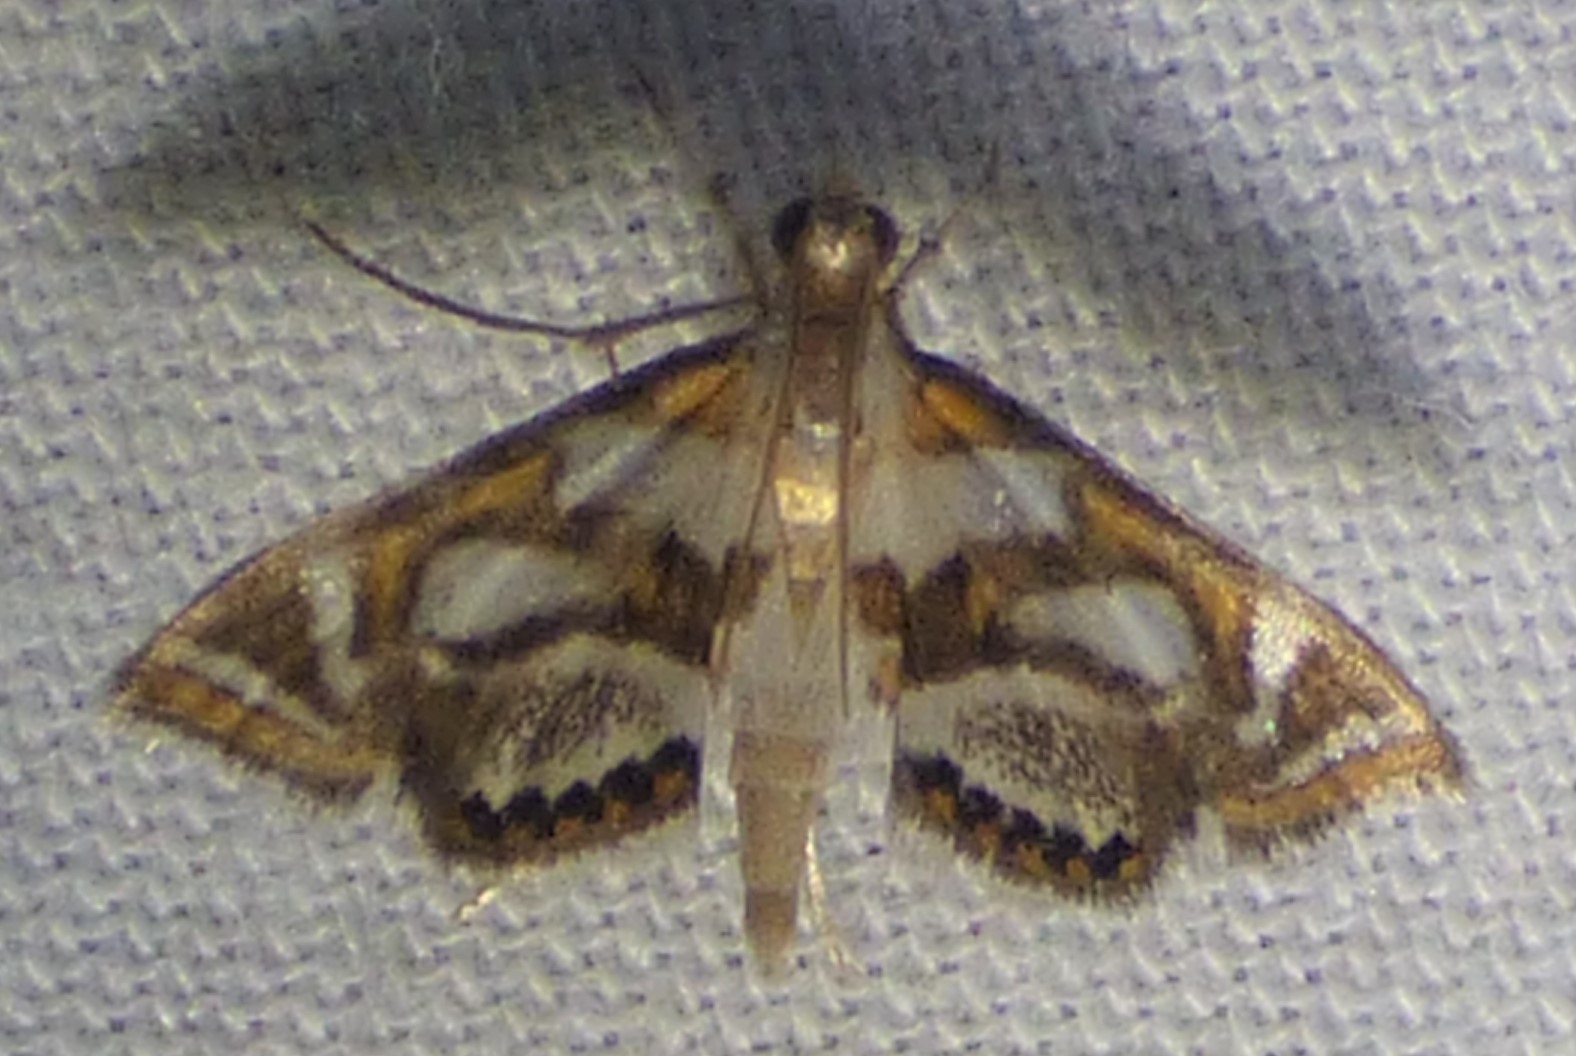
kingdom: Animalia
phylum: Arthropoda
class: Insecta
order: Lepidoptera
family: Crambidae
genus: Chrysendeton
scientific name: Chrysendeton medicinalis
